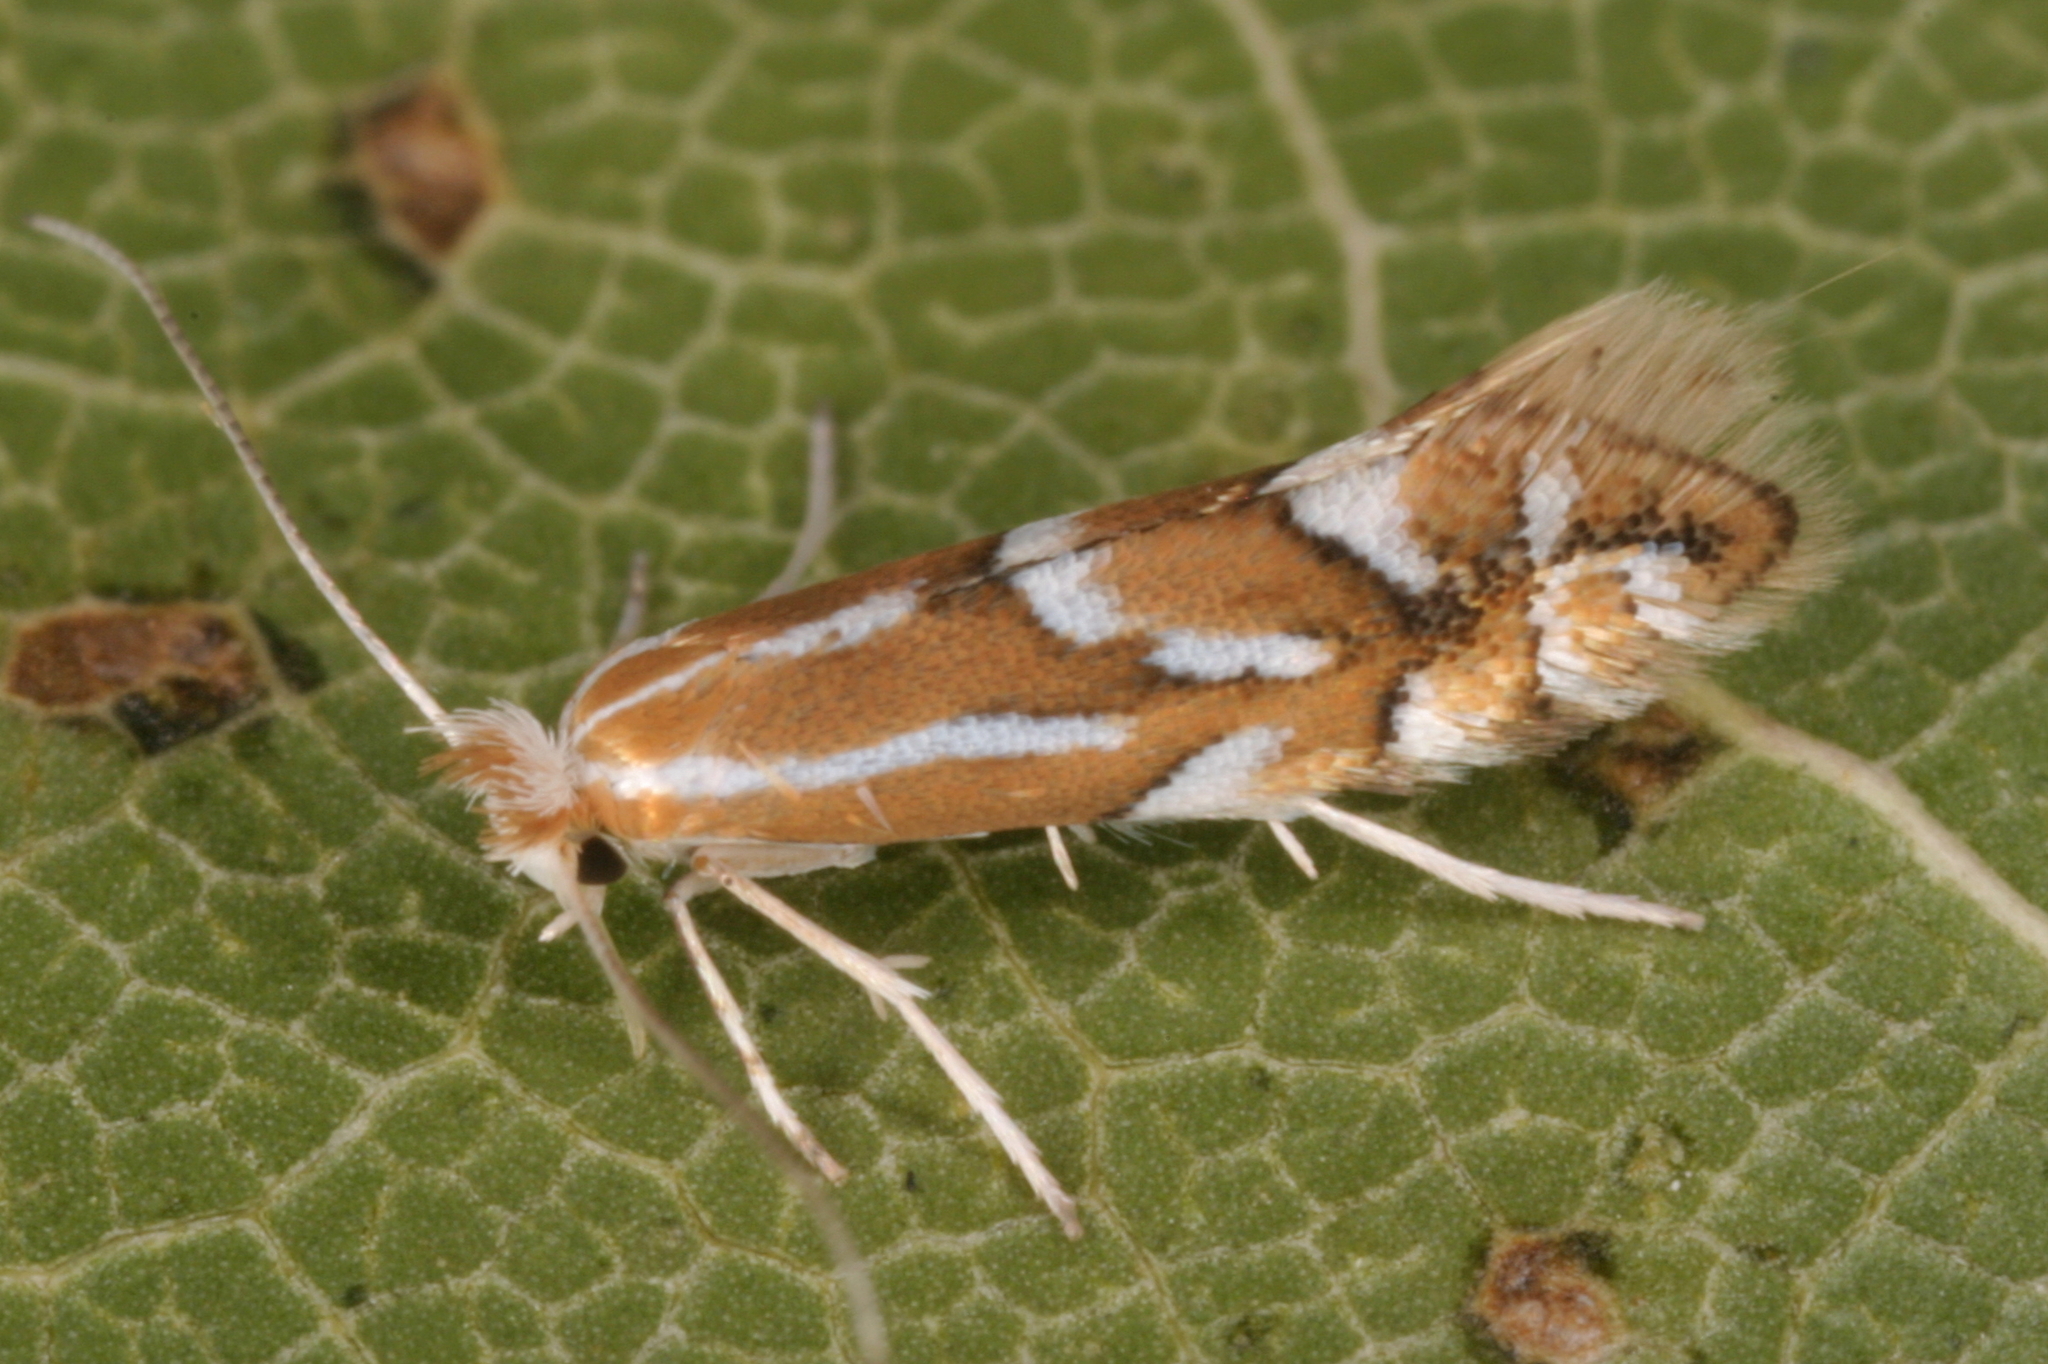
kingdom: Animalia
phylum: Arthropoda
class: Insecta
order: Lepidoptera
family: Gracillariidae
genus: Phyllonorycter
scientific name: Phyllonorycter dubitella
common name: Southern midget
